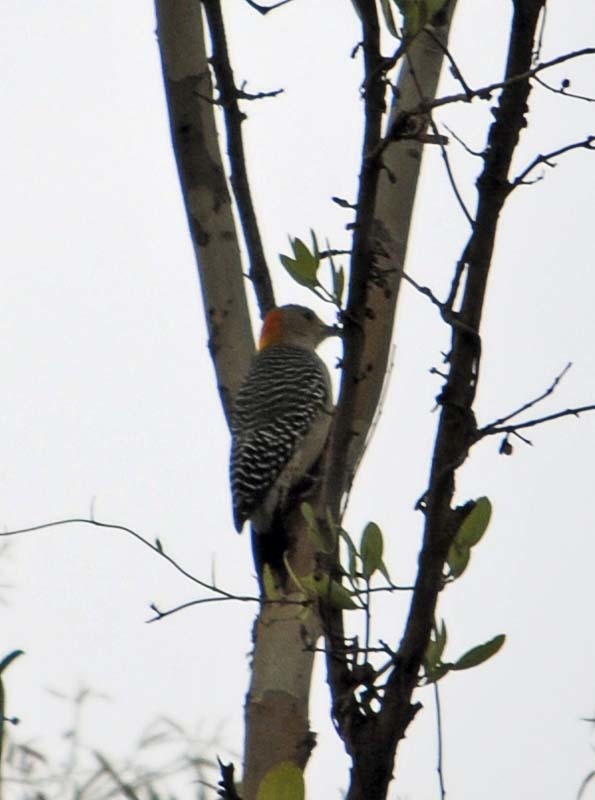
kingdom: Animalia
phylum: Chordata
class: Aves
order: Piciformes
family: Picidae
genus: Melanerpes
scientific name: Melanerpes aurifrons
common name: Golden-fronted woodpecker
